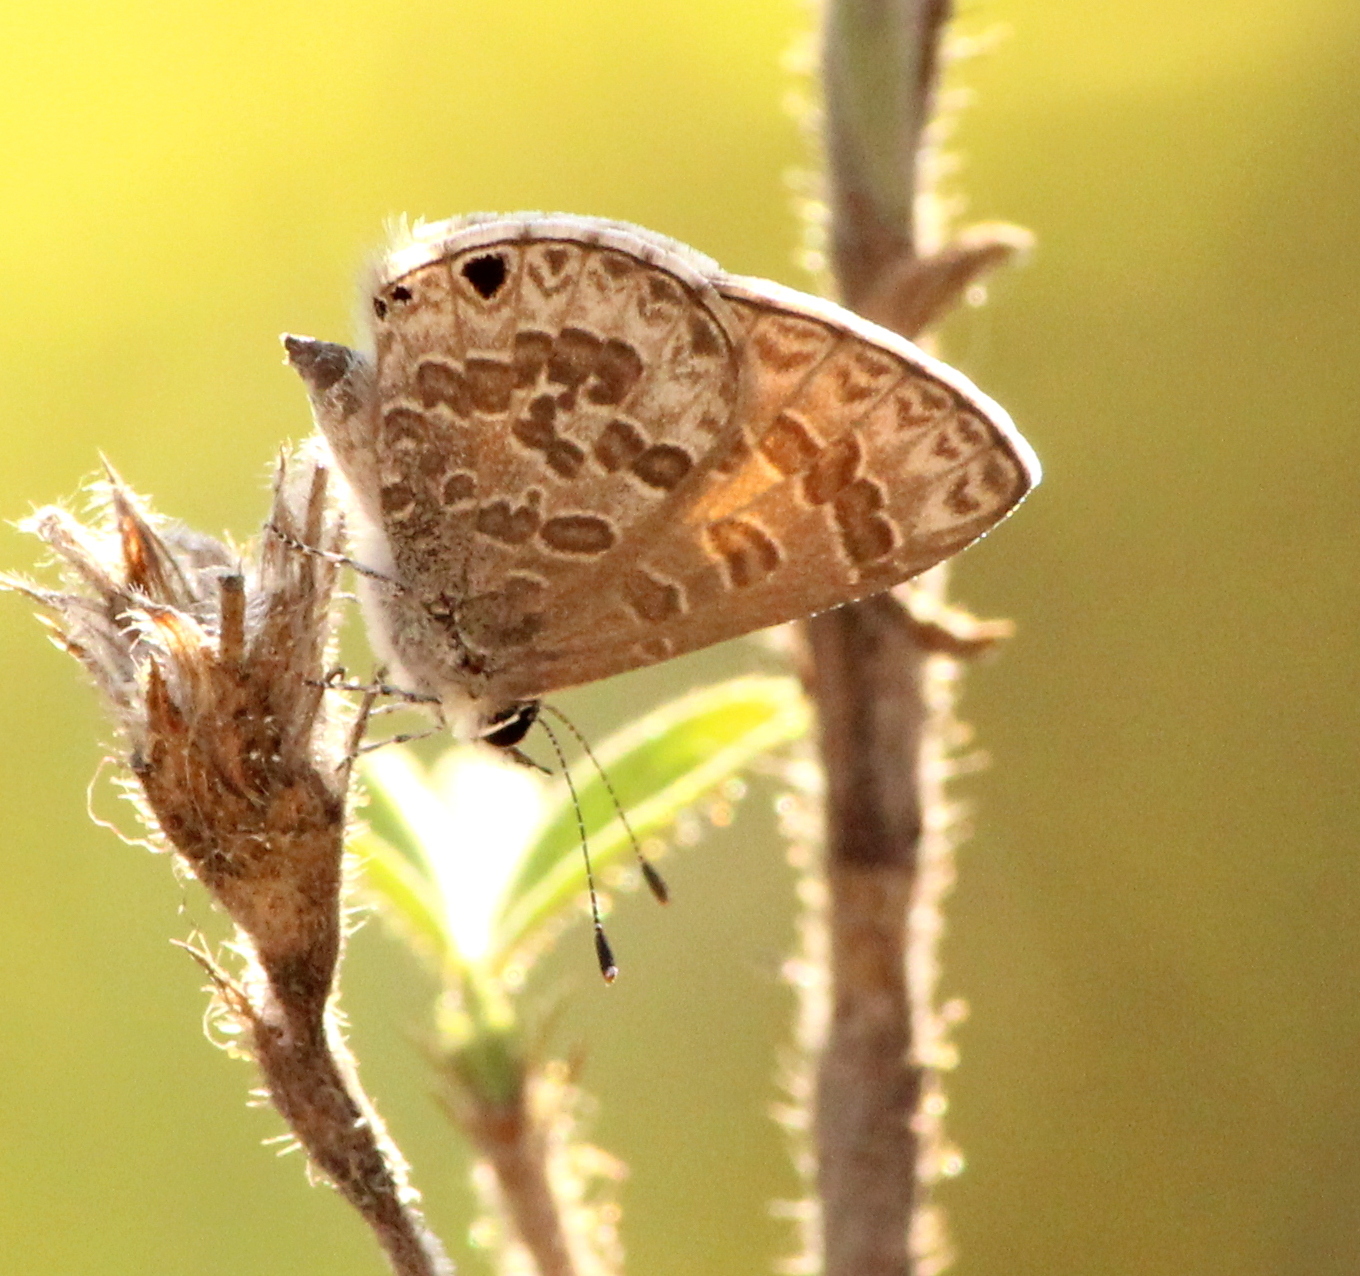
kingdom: Animalia
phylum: Arthropoda
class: Insecta
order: Lepidoptera
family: Lycaenidae
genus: Prosotas
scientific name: Prosotas noreia
